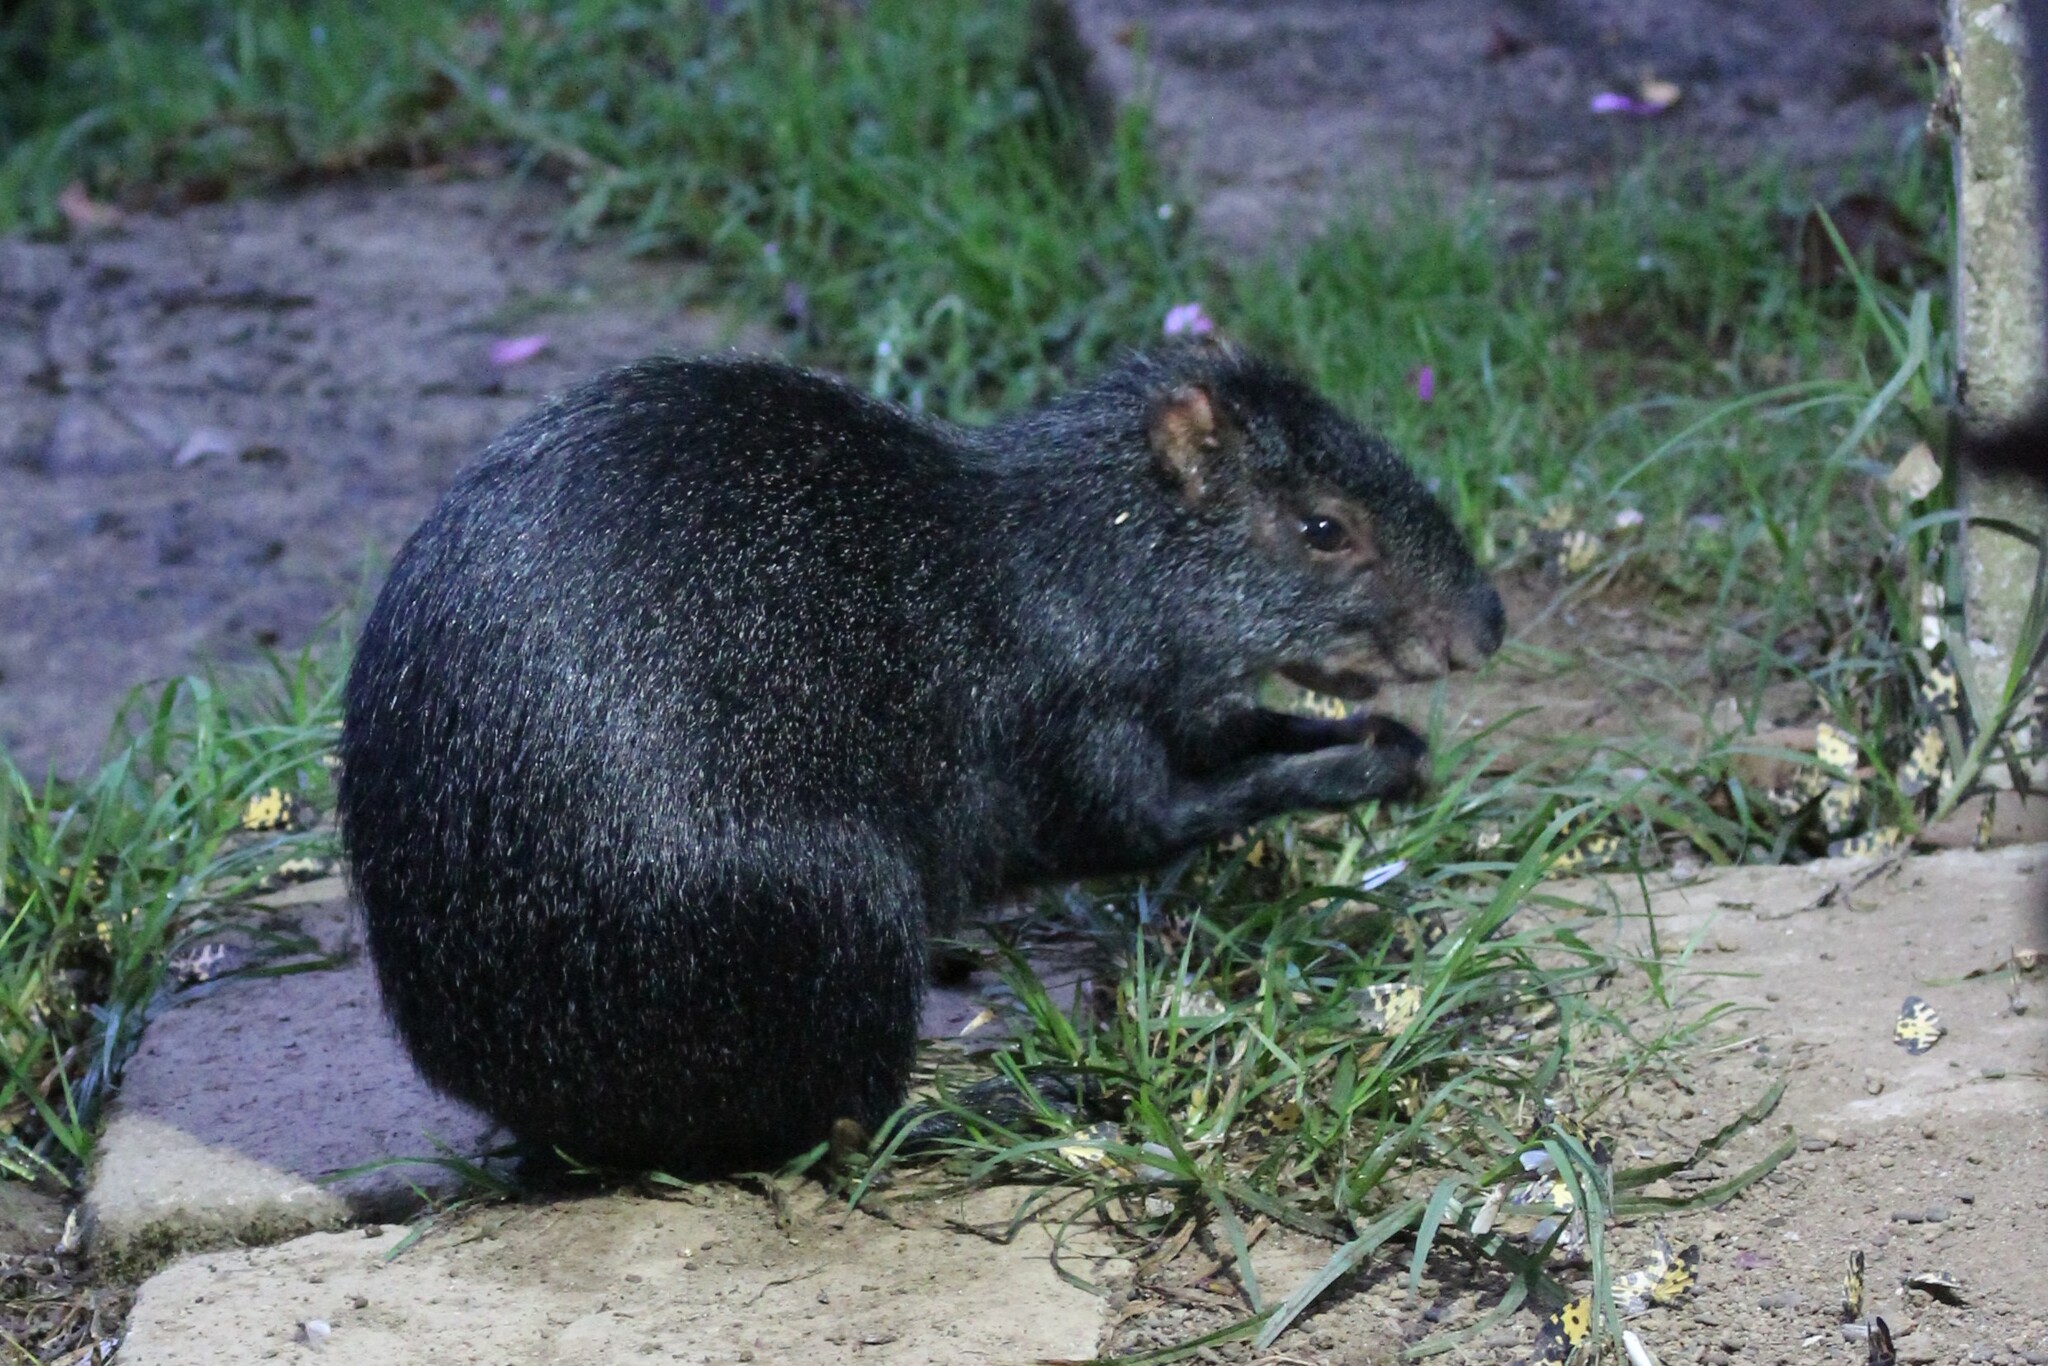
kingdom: Animalia
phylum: Chordata
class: Mammalia
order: Rodentia
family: Dasyproctidae
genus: Dasyprocta
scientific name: Dasyprocta fuliginosa
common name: Black agouti
